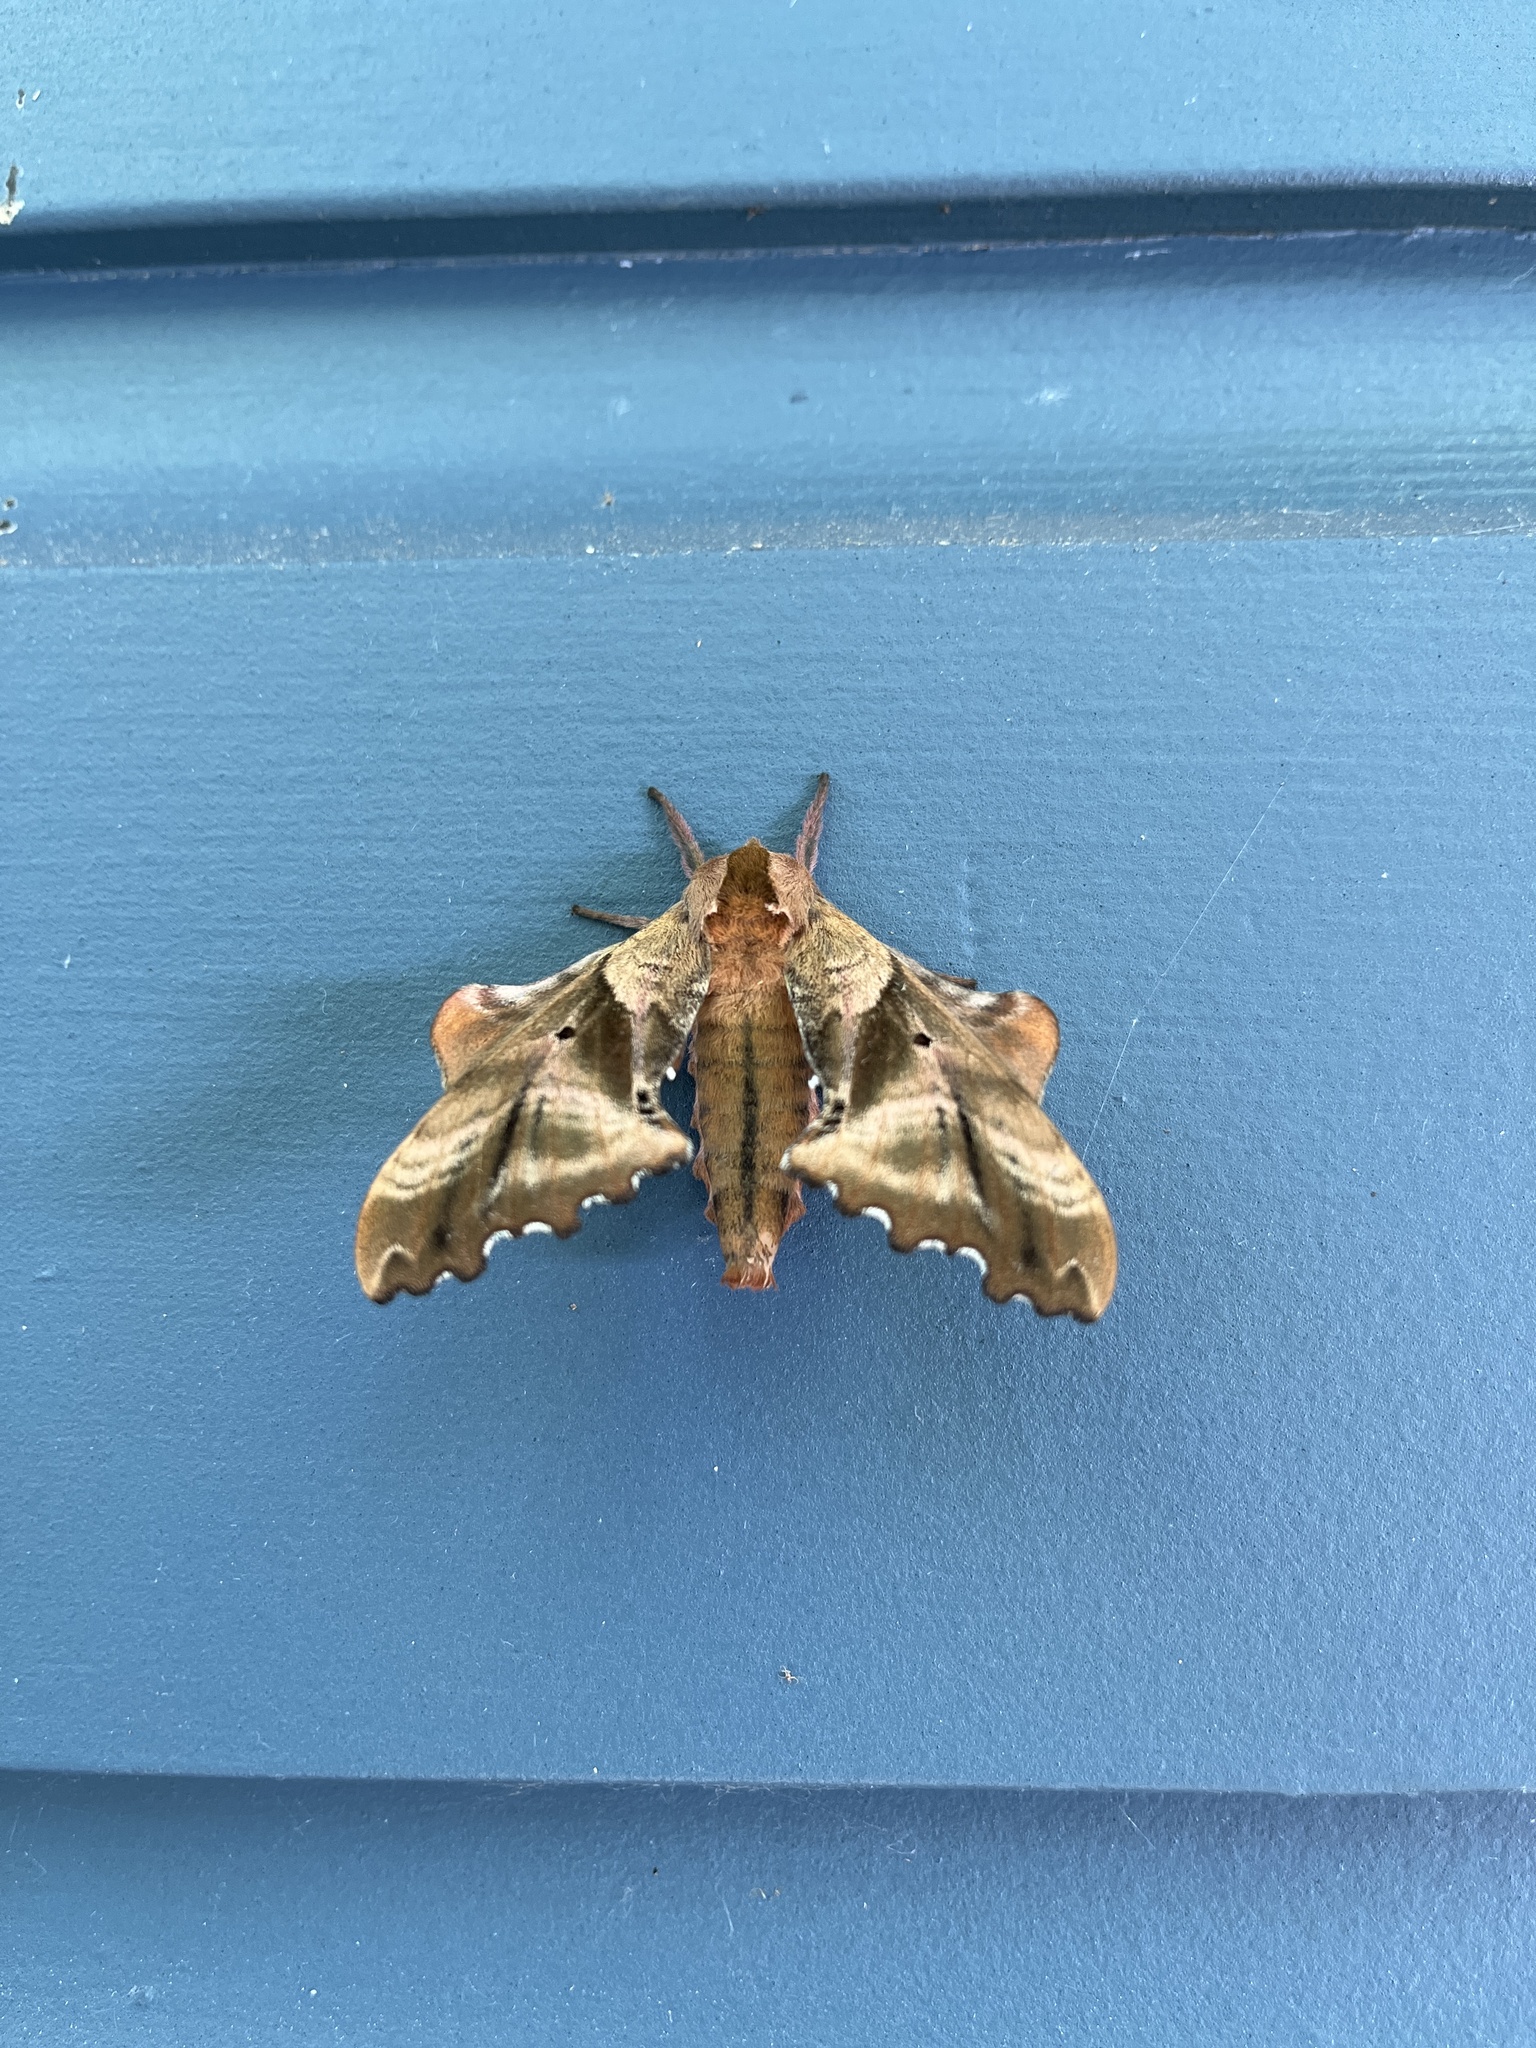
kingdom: Animalia
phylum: Arthropoda
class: Insecta
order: Lepidoptera
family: Sphingidae
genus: Paonias
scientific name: Paonias excaecata
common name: Blind-eyed sphinx
